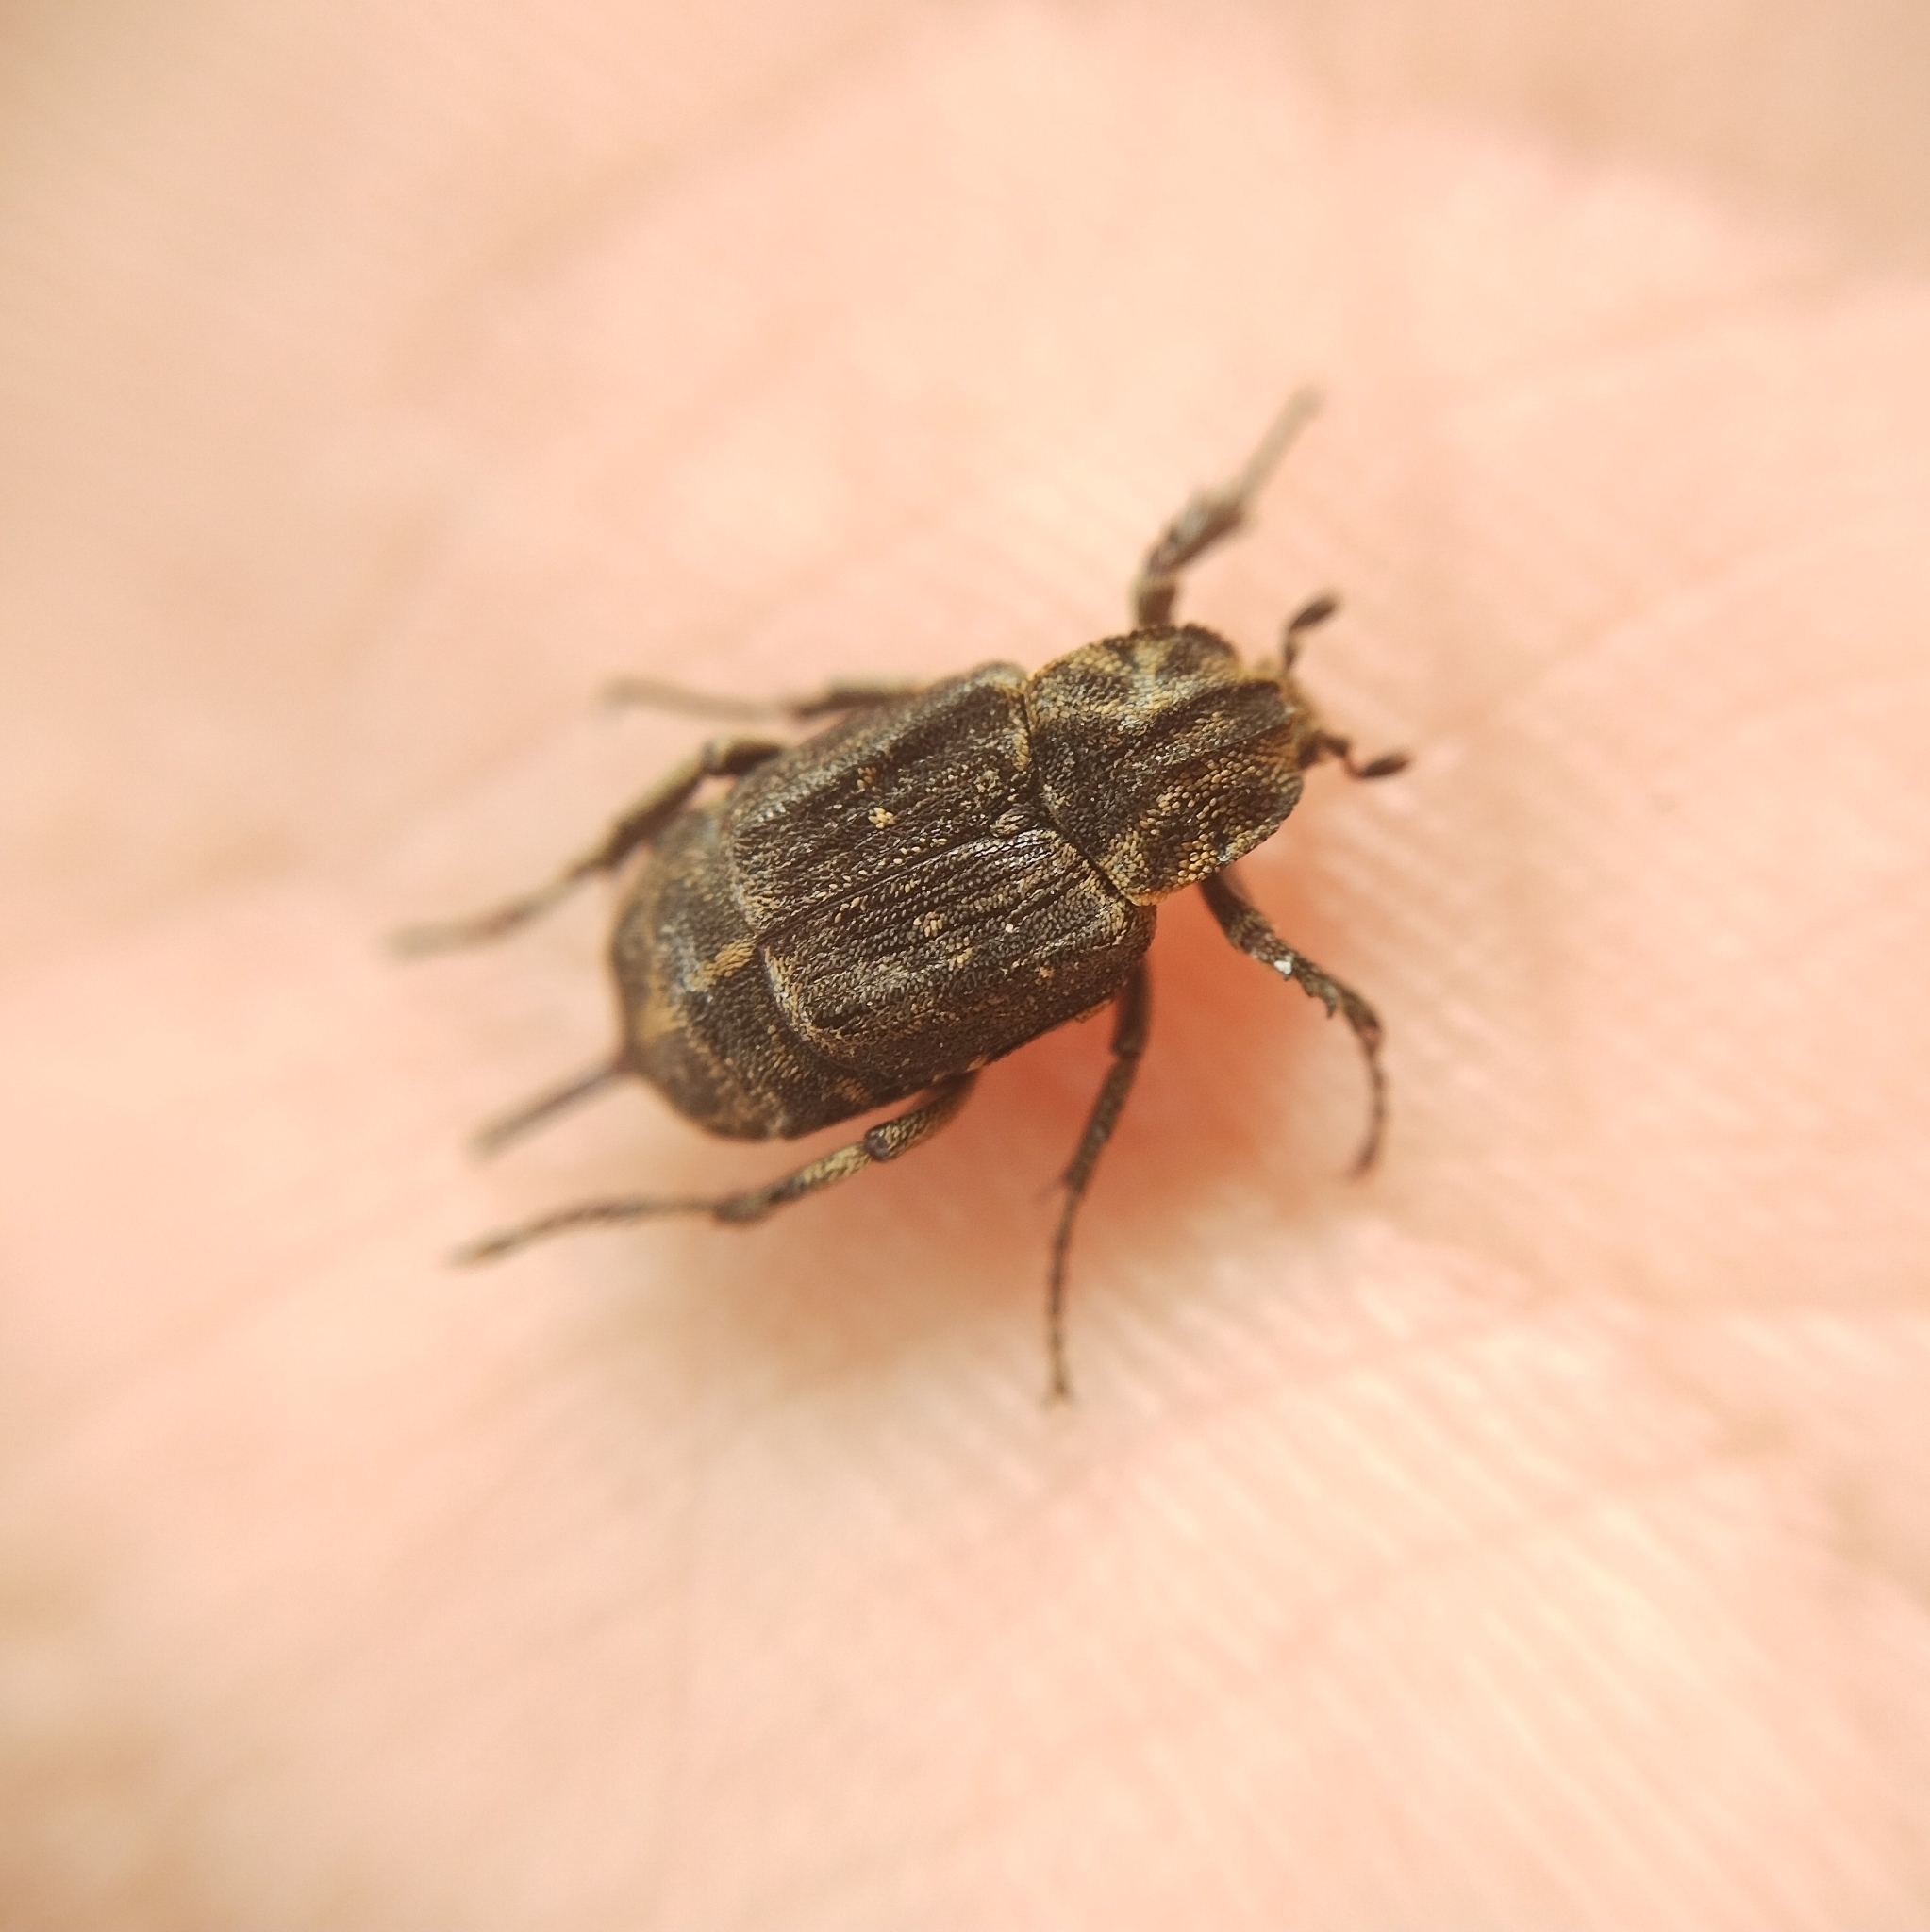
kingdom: Animalia
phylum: Arthropoda
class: Insecta
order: Coleoptera
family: Scarabaeidae
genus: Valgus
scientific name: Valgus hemipterus
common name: Bug flower chafer
